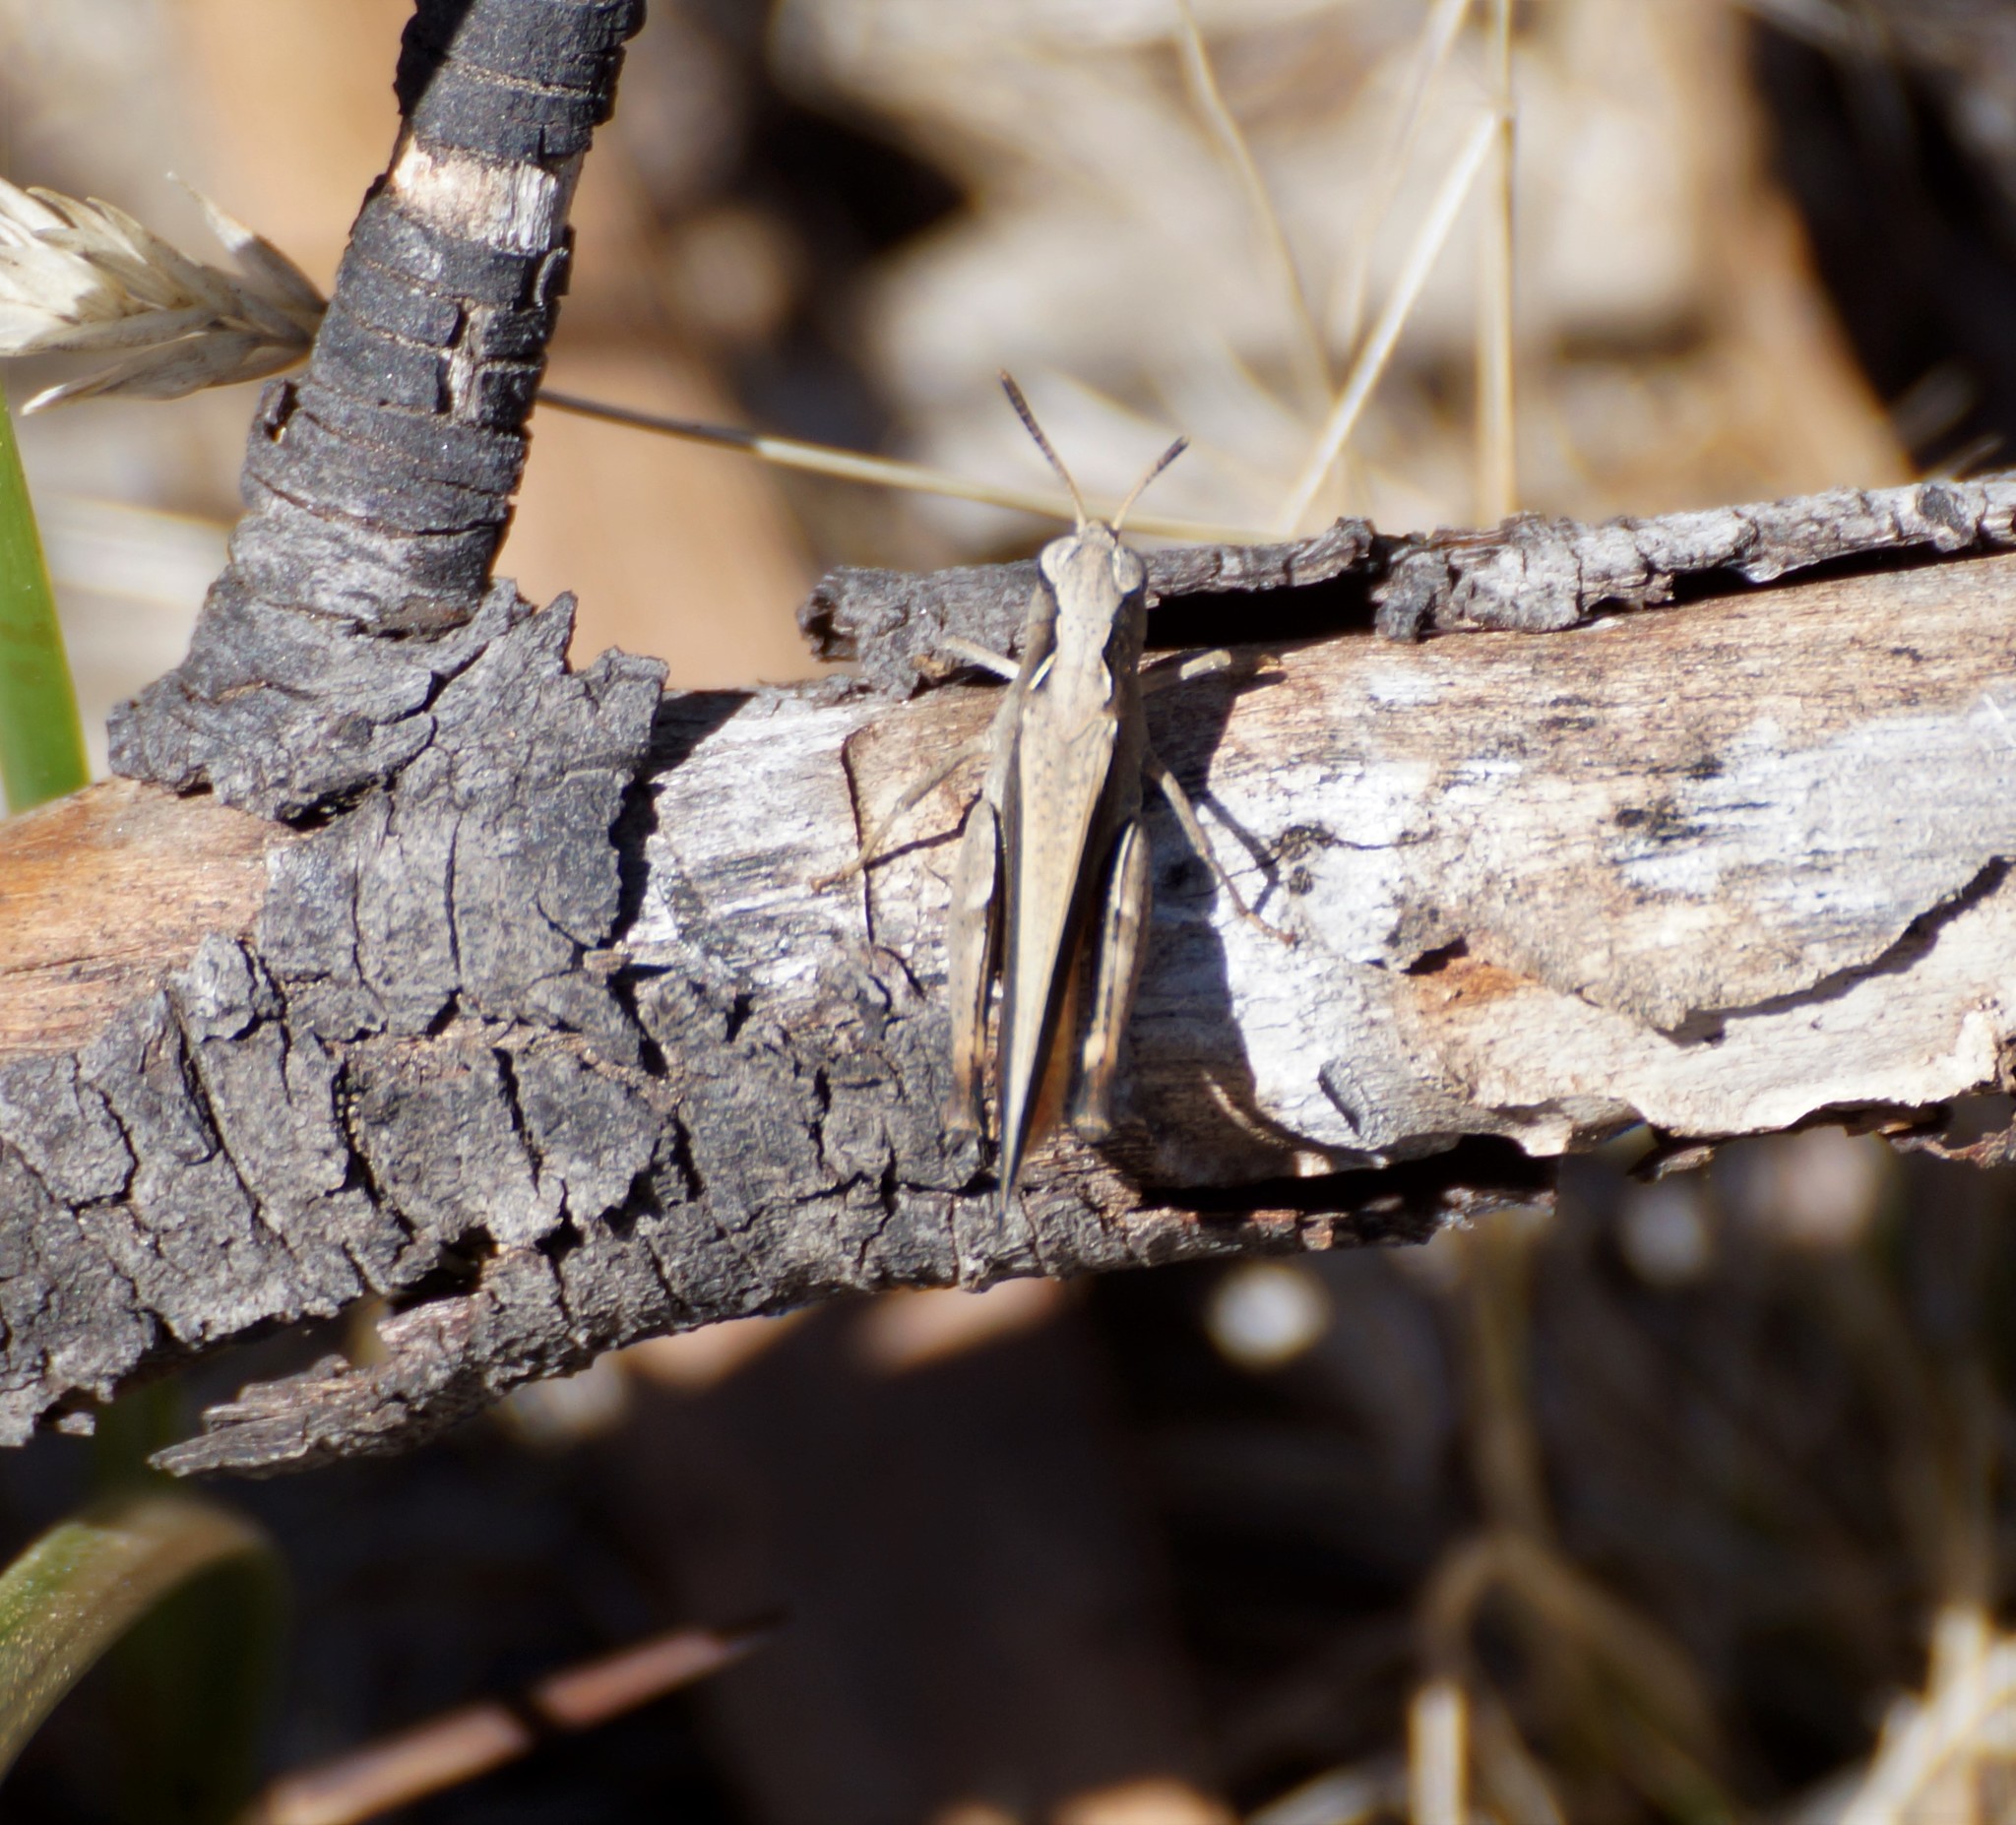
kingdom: Animalia
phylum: Arthropoda
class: Insecta
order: Orthoptera
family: Acrididae
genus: Cryptobothrus
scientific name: Cryptobothrus chrysophorus
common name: Golden bandwing
